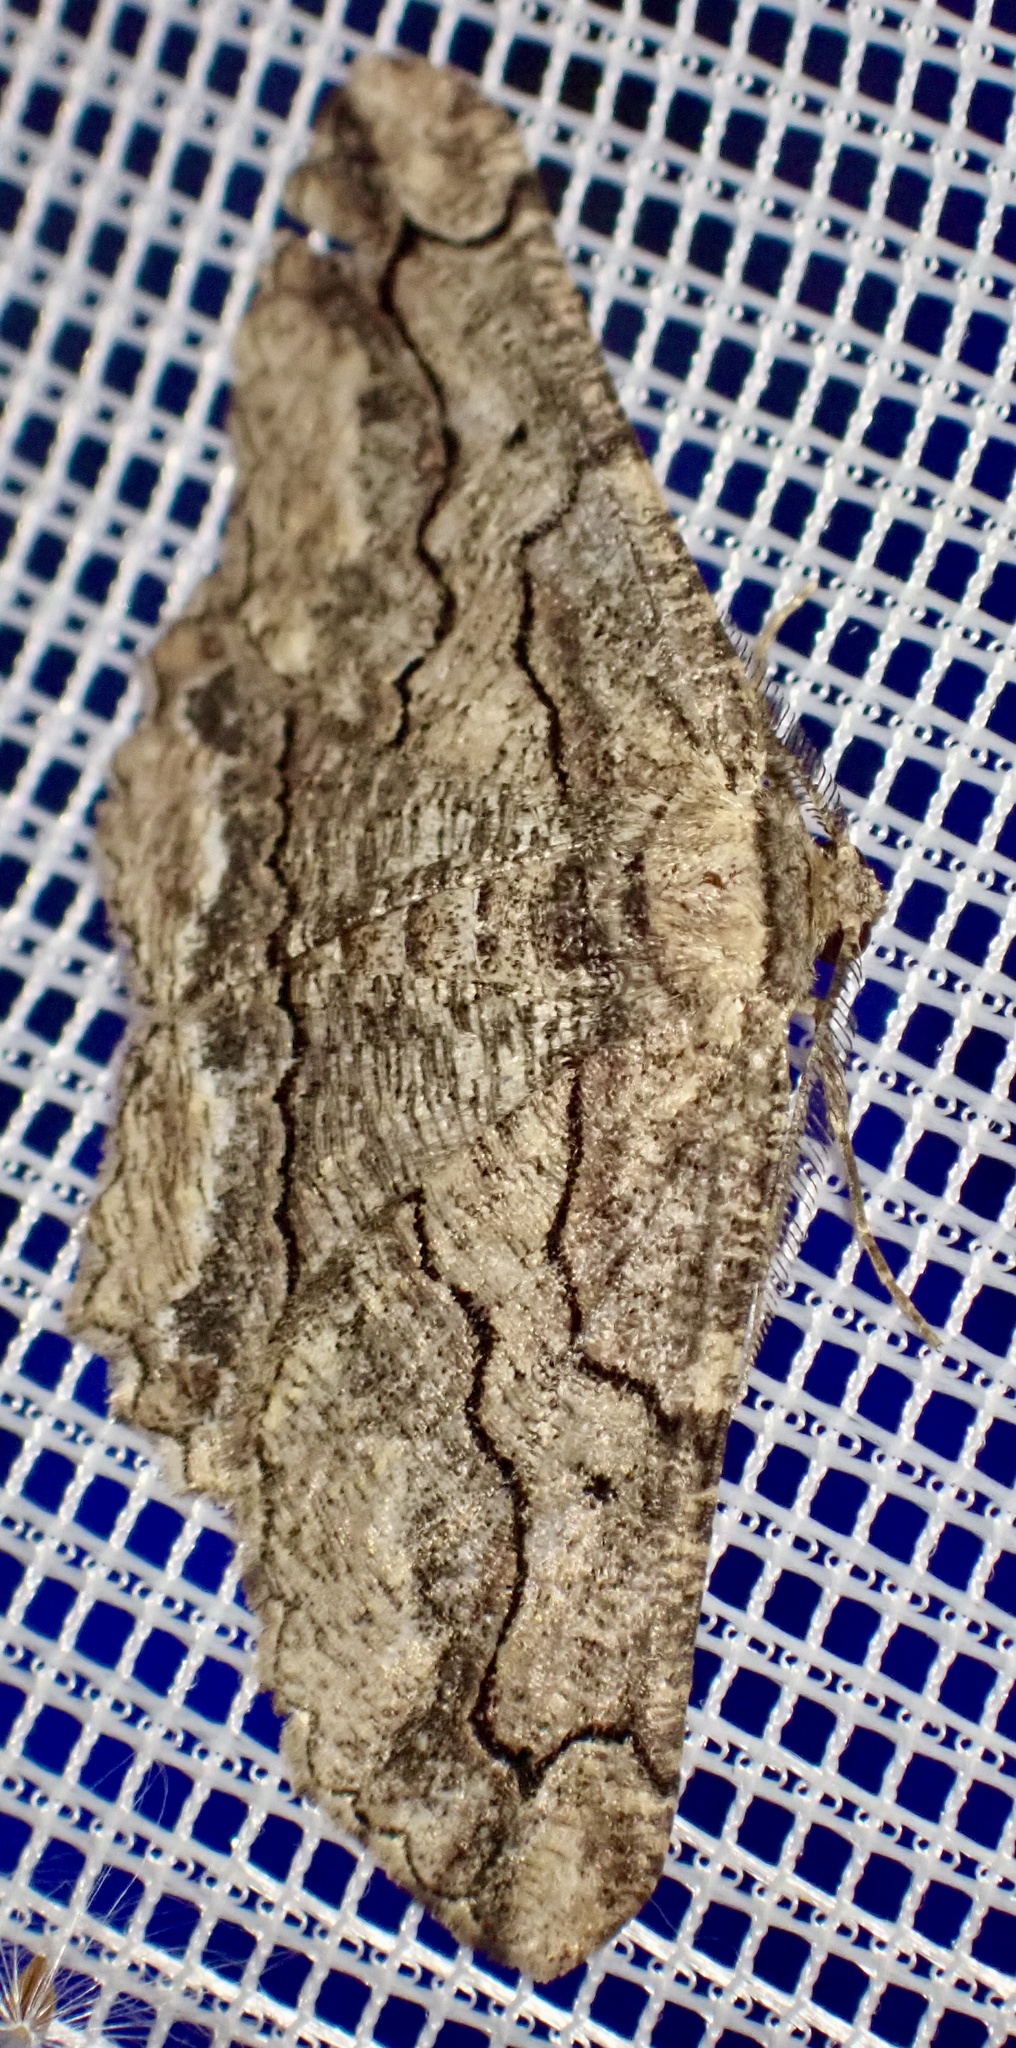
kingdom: Animalia
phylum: Arthropoda
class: Insecta
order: Lepidoptera
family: Geometridae
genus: Menophra
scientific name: Menophra japygiaria
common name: Brassy waved umber
